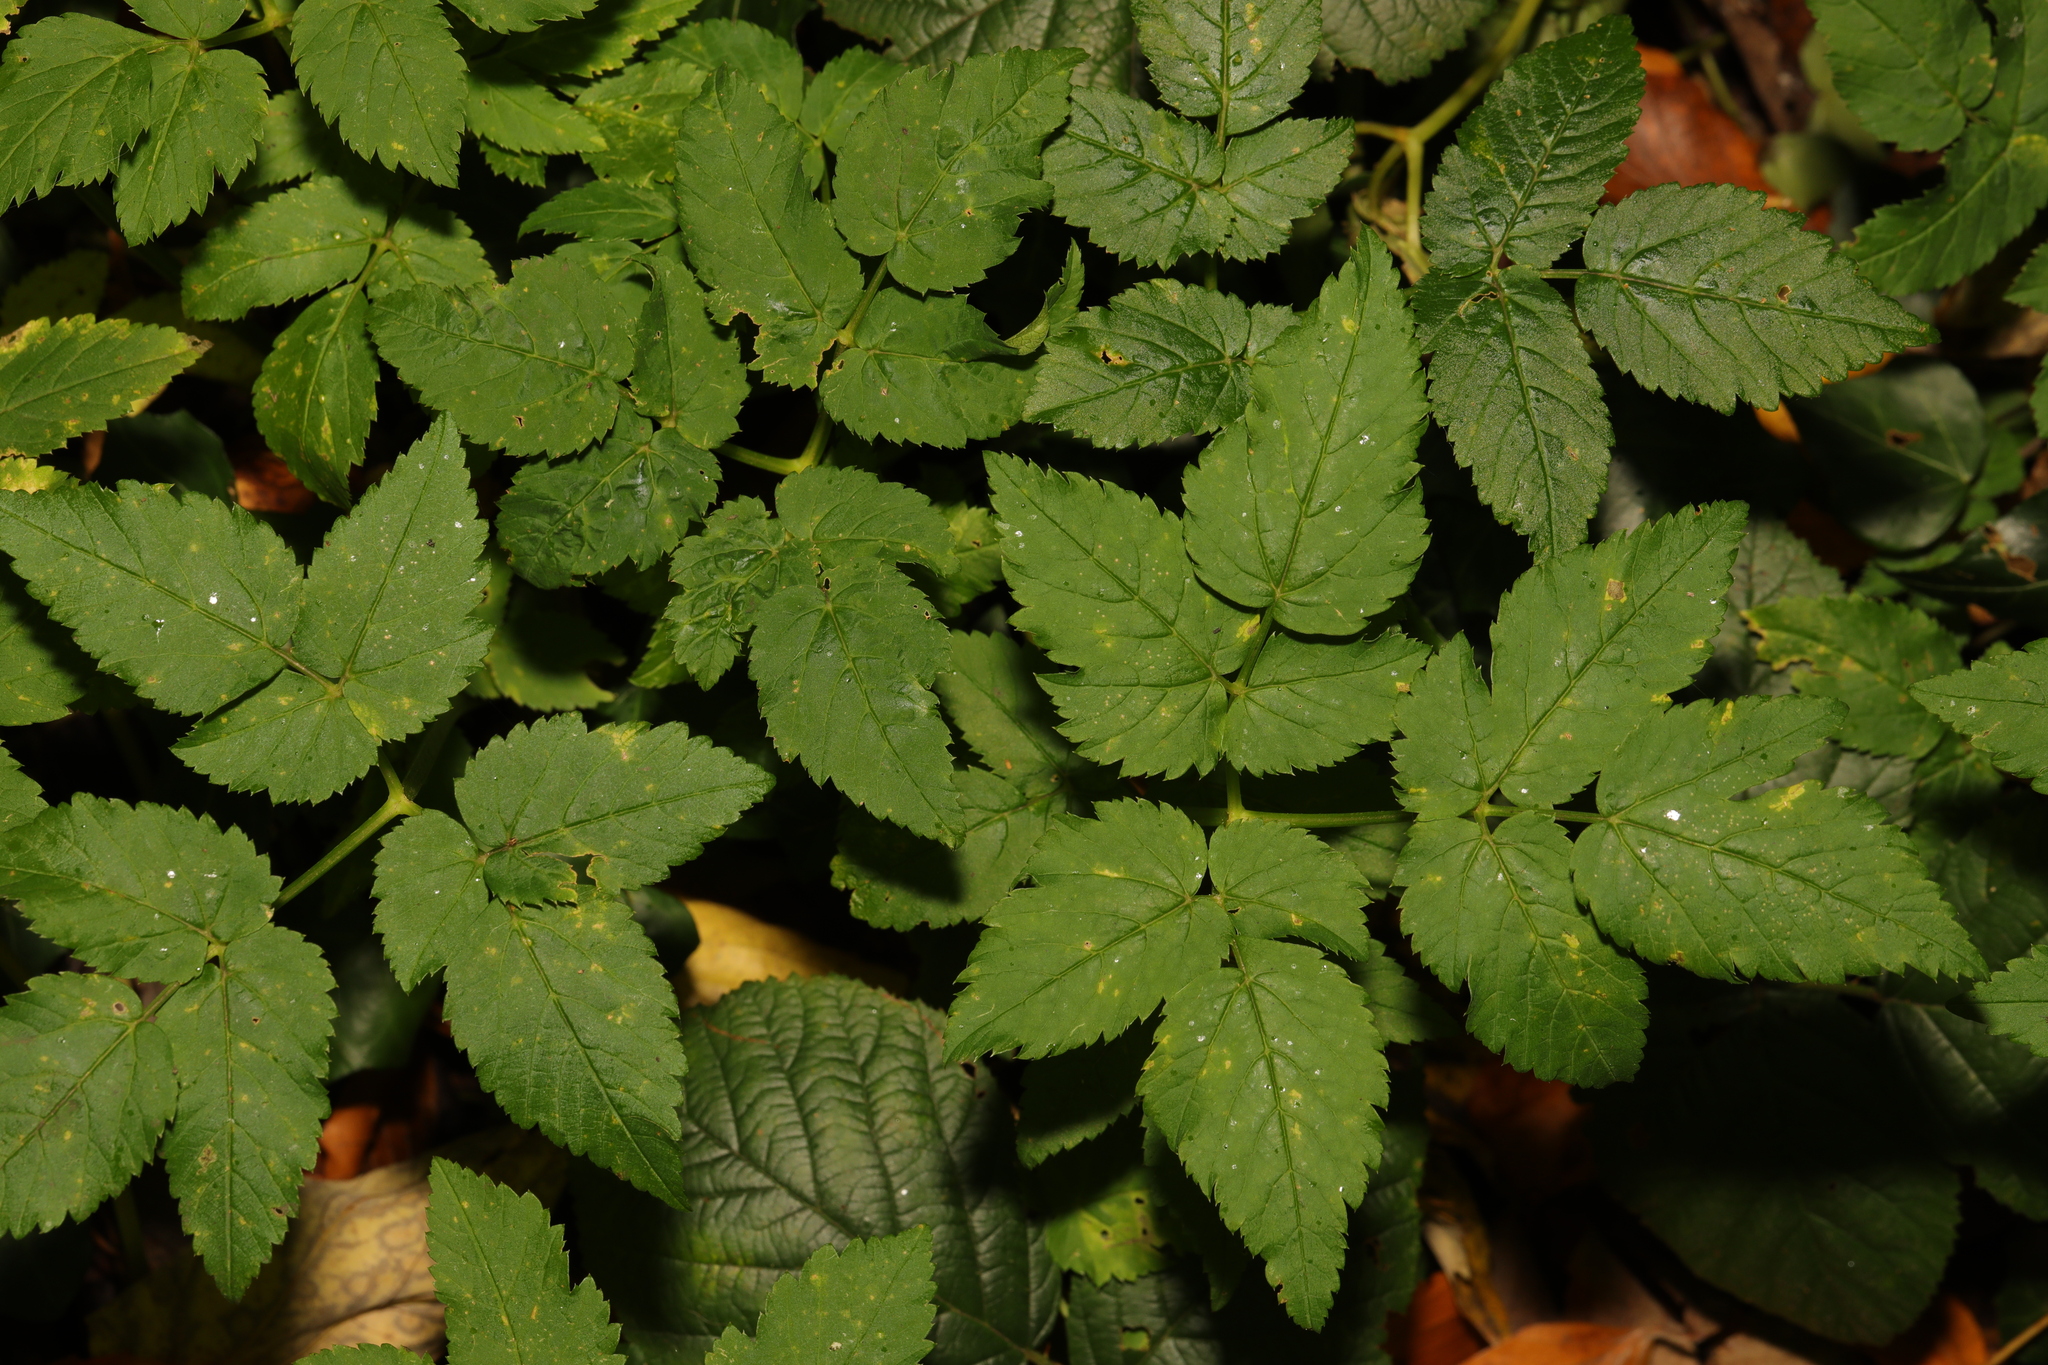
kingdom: Plantae
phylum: Tracheophyta
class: Magnoliopsida
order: Apiales
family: Apiaceae
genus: Aegopodium
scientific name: Aegopodium podagraria
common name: Ground-elder
